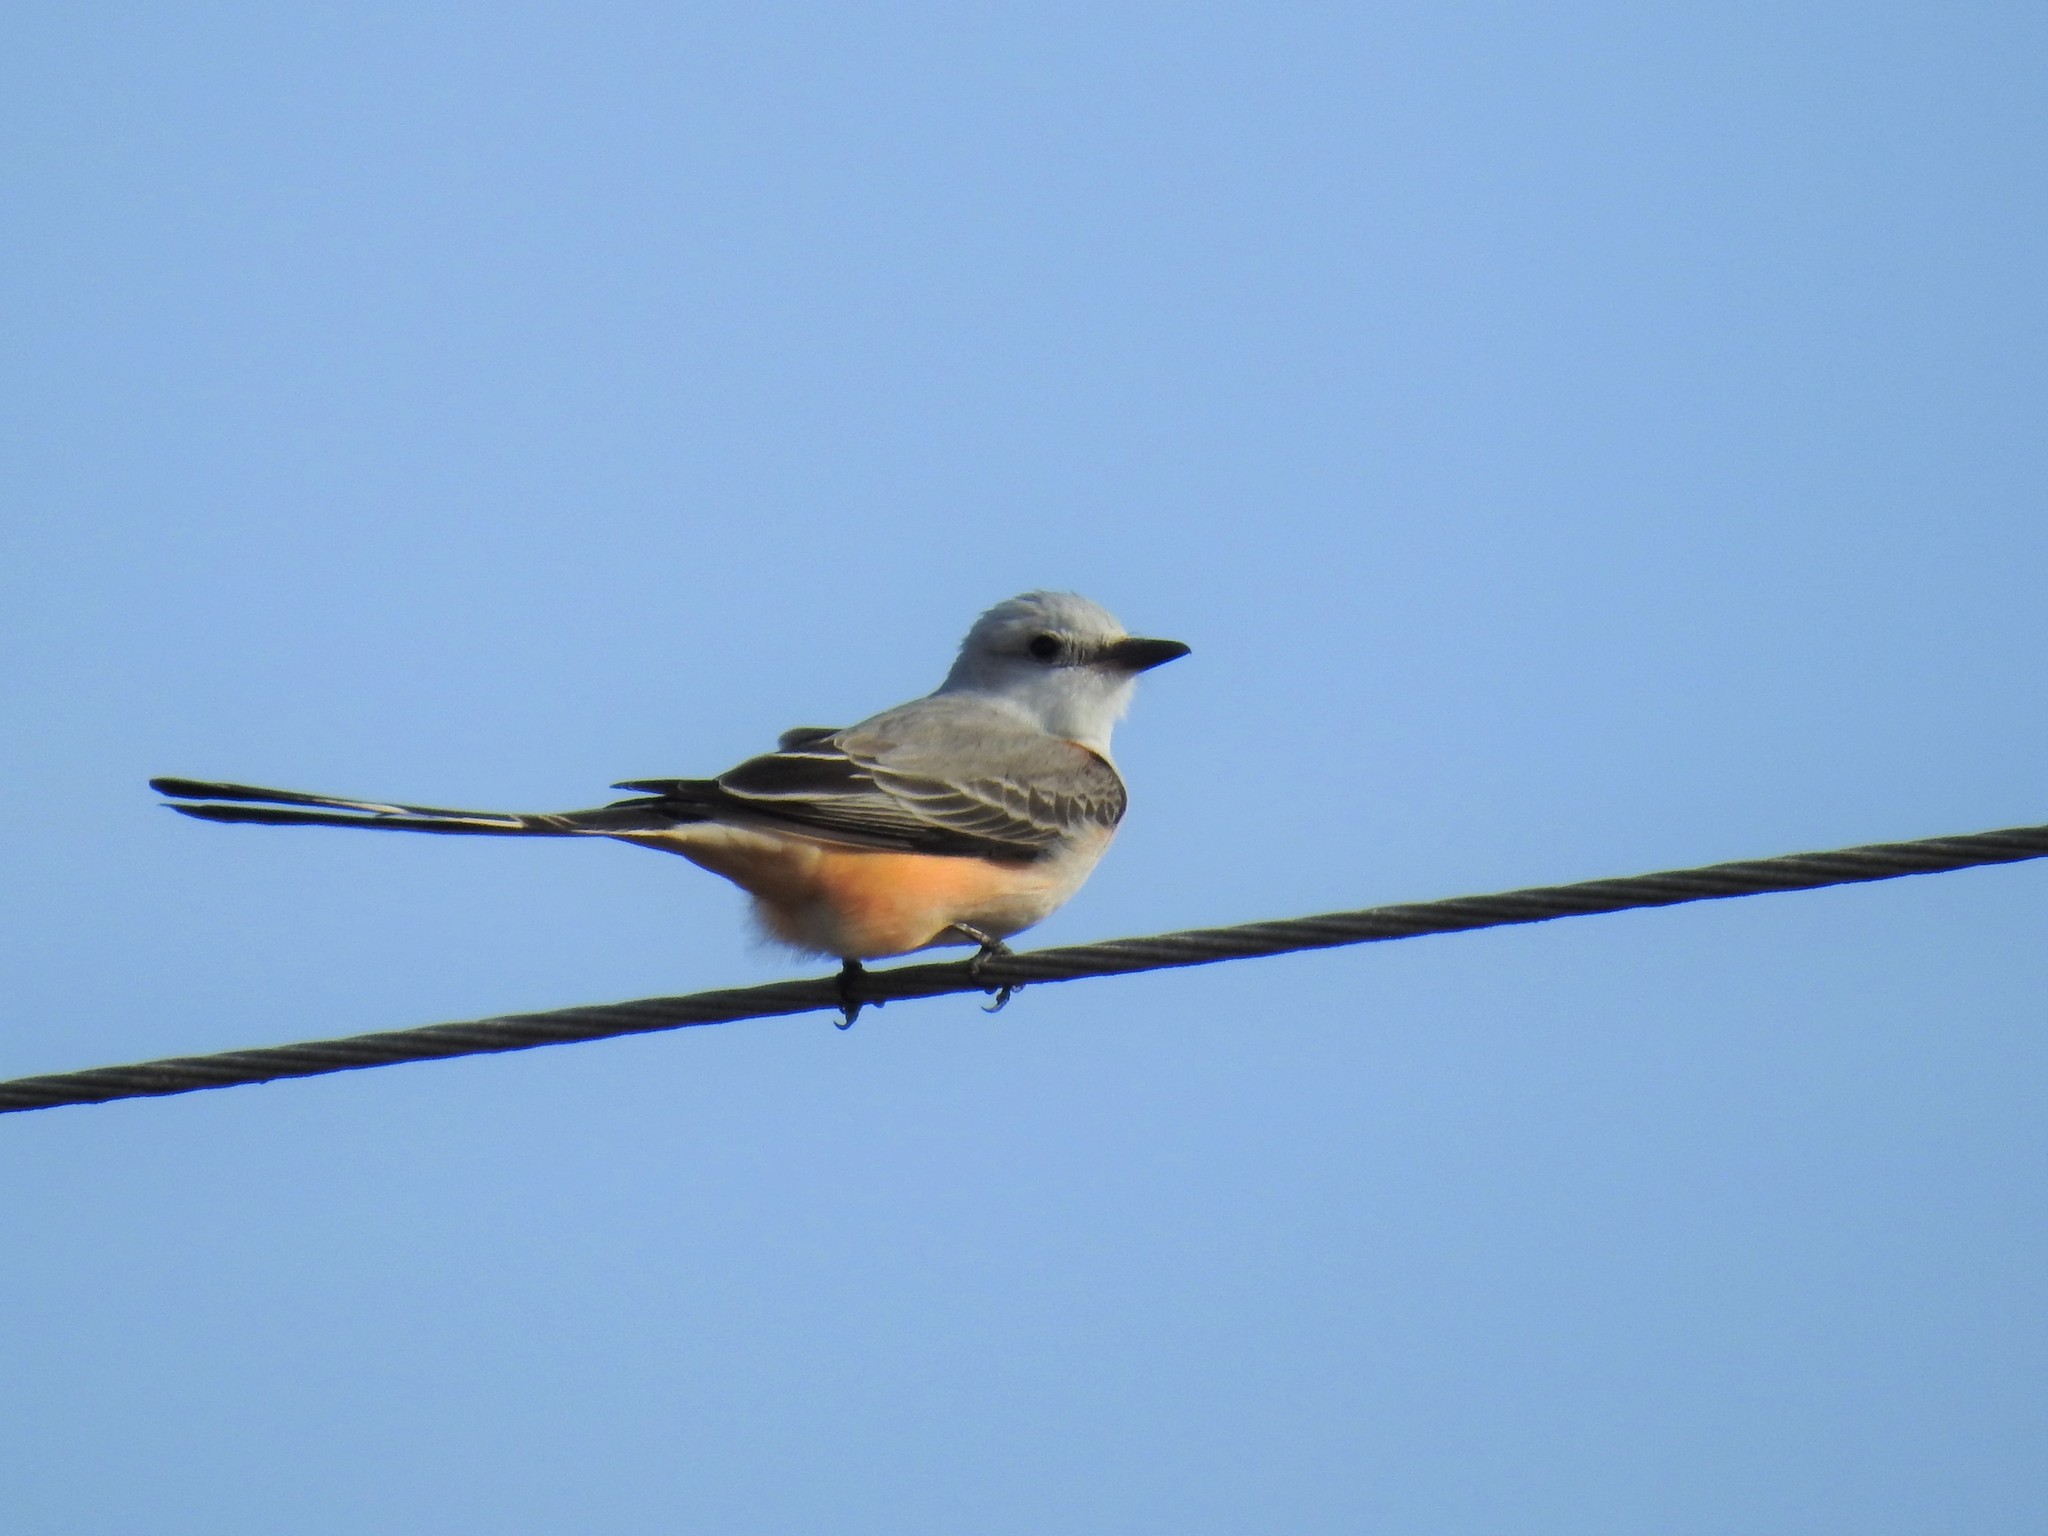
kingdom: Animalia
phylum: Chordata
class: Aves
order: Passeriformes
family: Tyrannidae
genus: Tyrannus
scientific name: Tyrannus forficatus
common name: Scissor-tailed flycatcher
